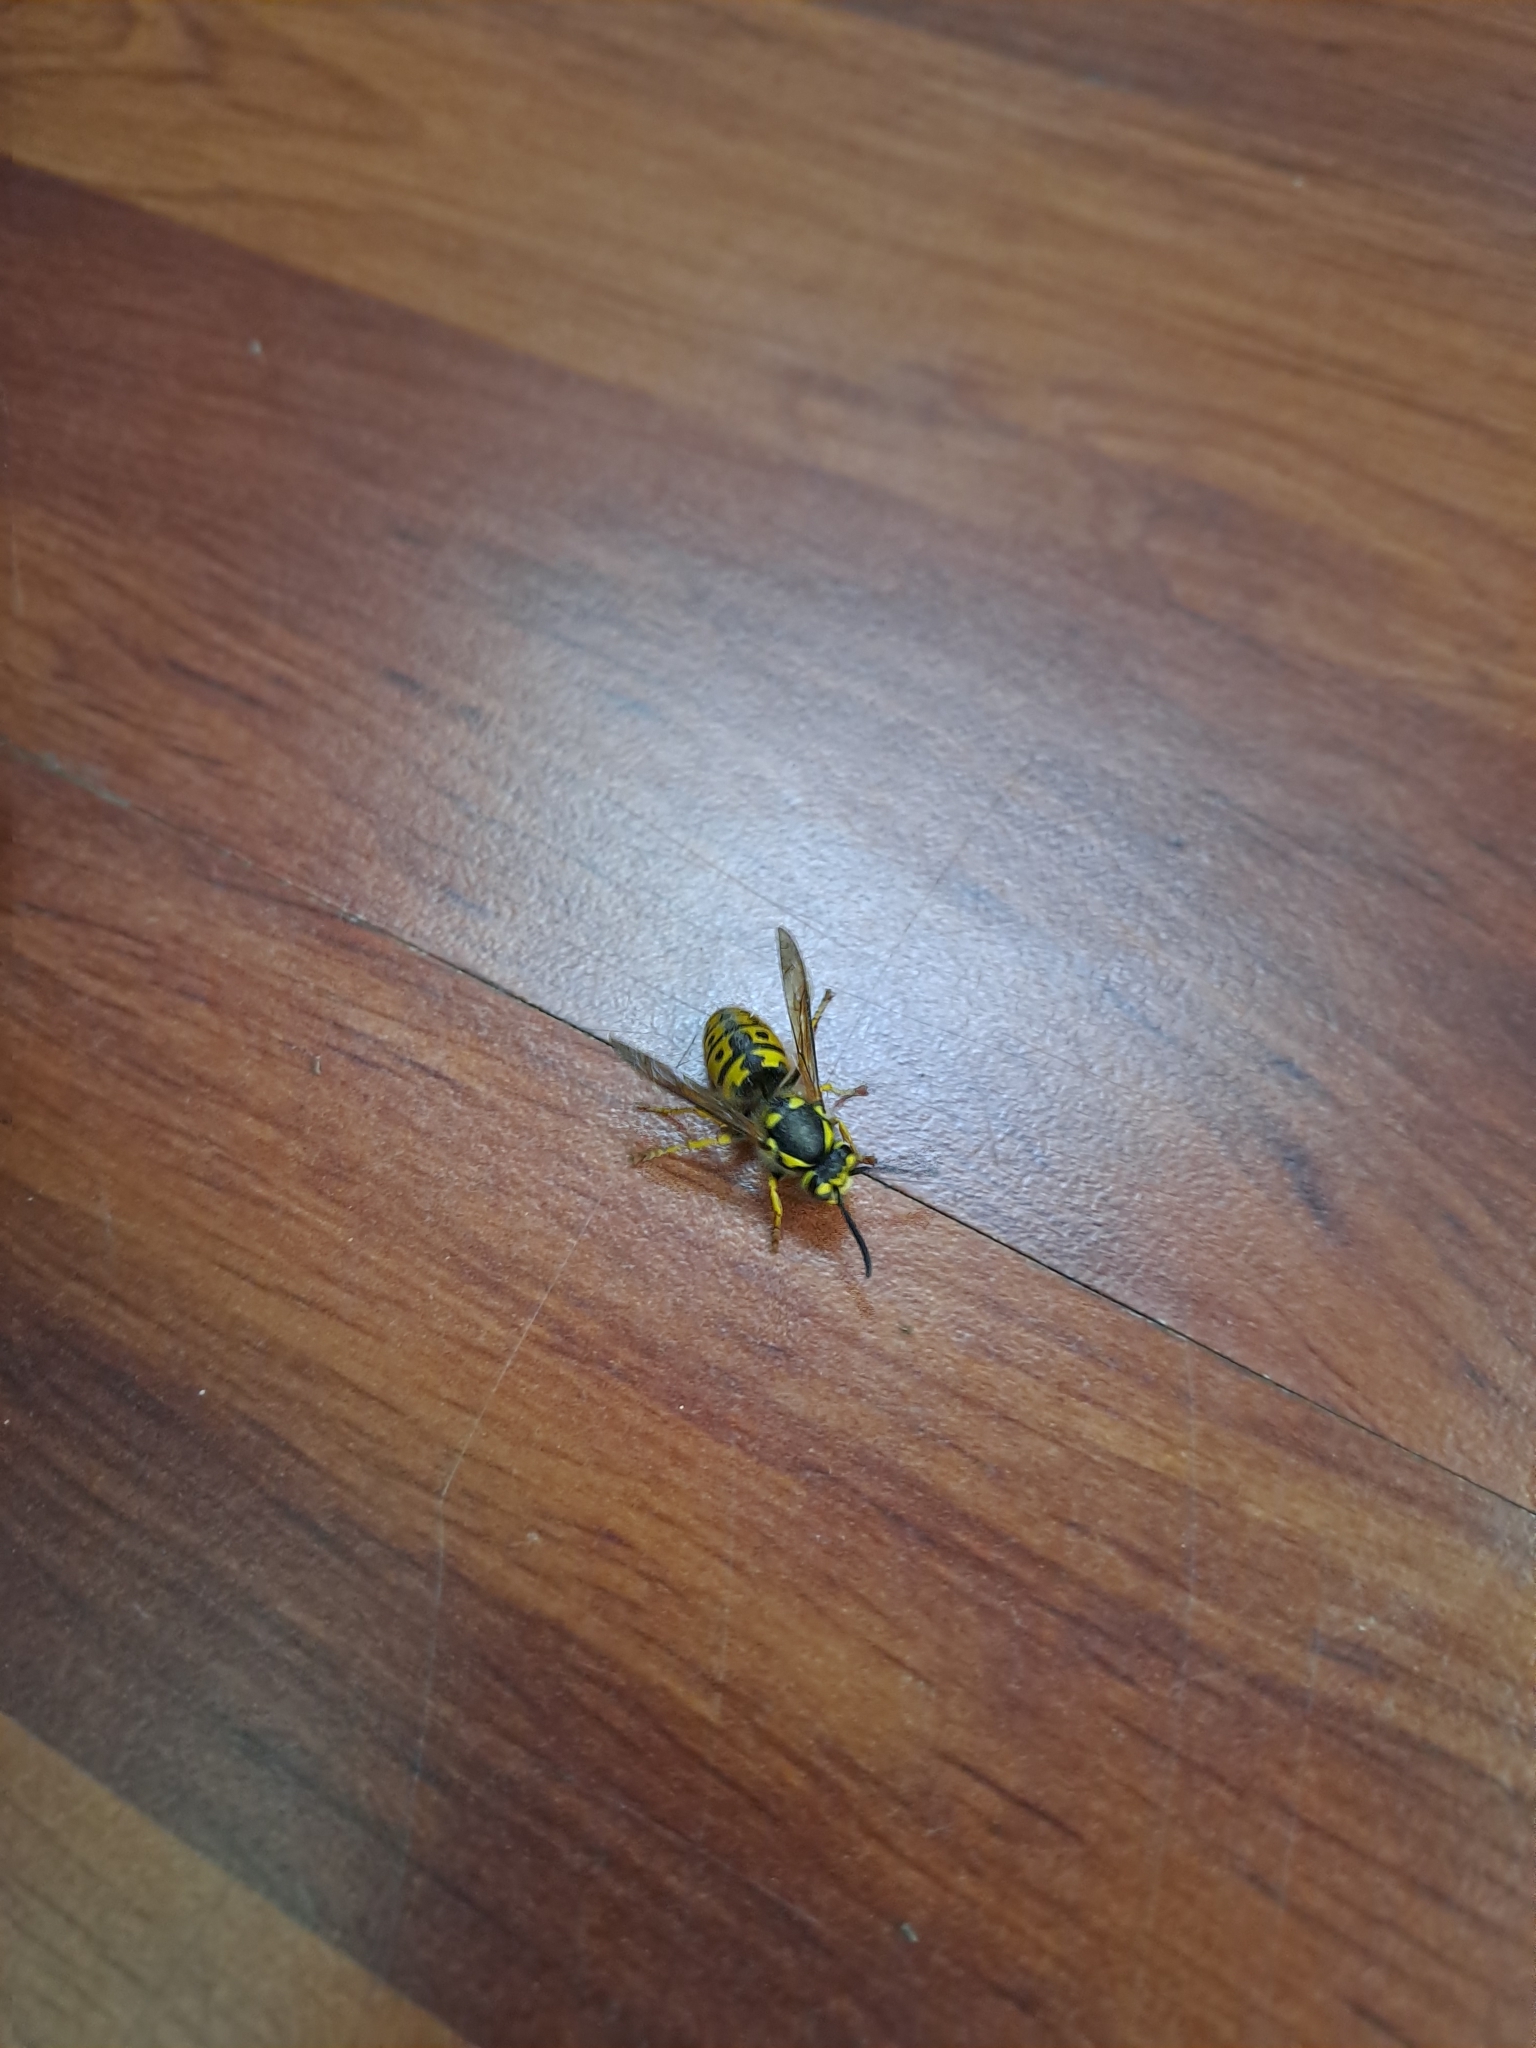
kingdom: Animalia
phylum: Arthropoda
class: Insecta
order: Hymenoptera
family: Vespidae
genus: Vespula
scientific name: Vespula germanica
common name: German wasp
